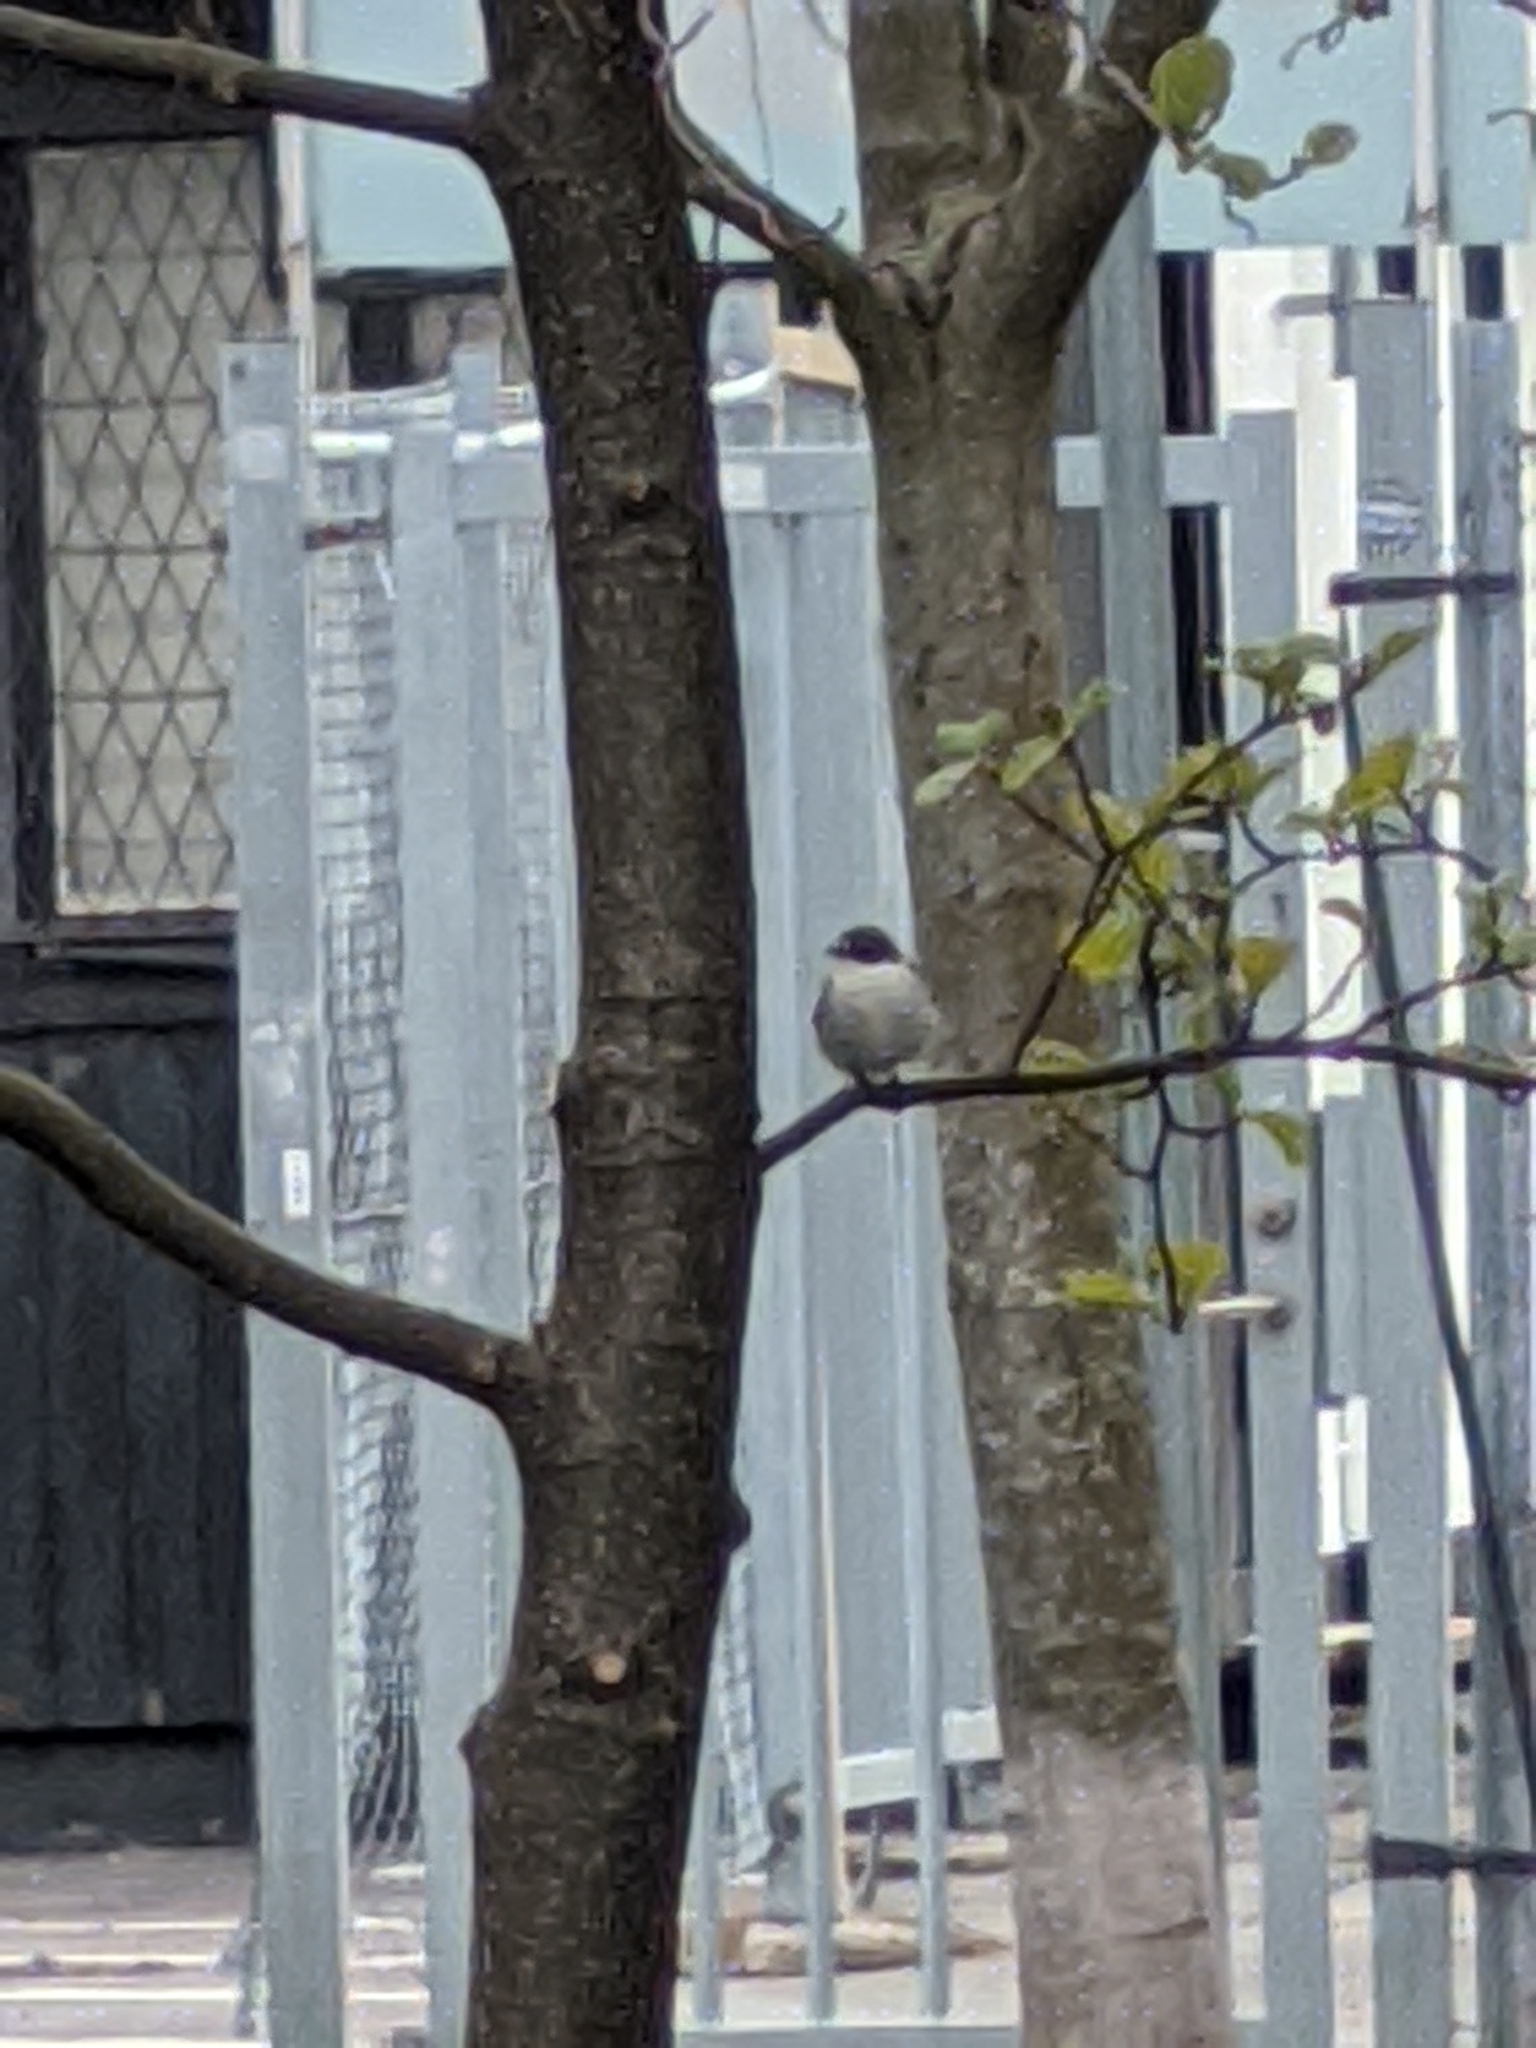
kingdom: Animalia
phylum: Chordata
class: Aves
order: Passeriformes
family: Muscicapidae
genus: Ficedula
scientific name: Ficedula hypoleuca
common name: European pied flycatcher
